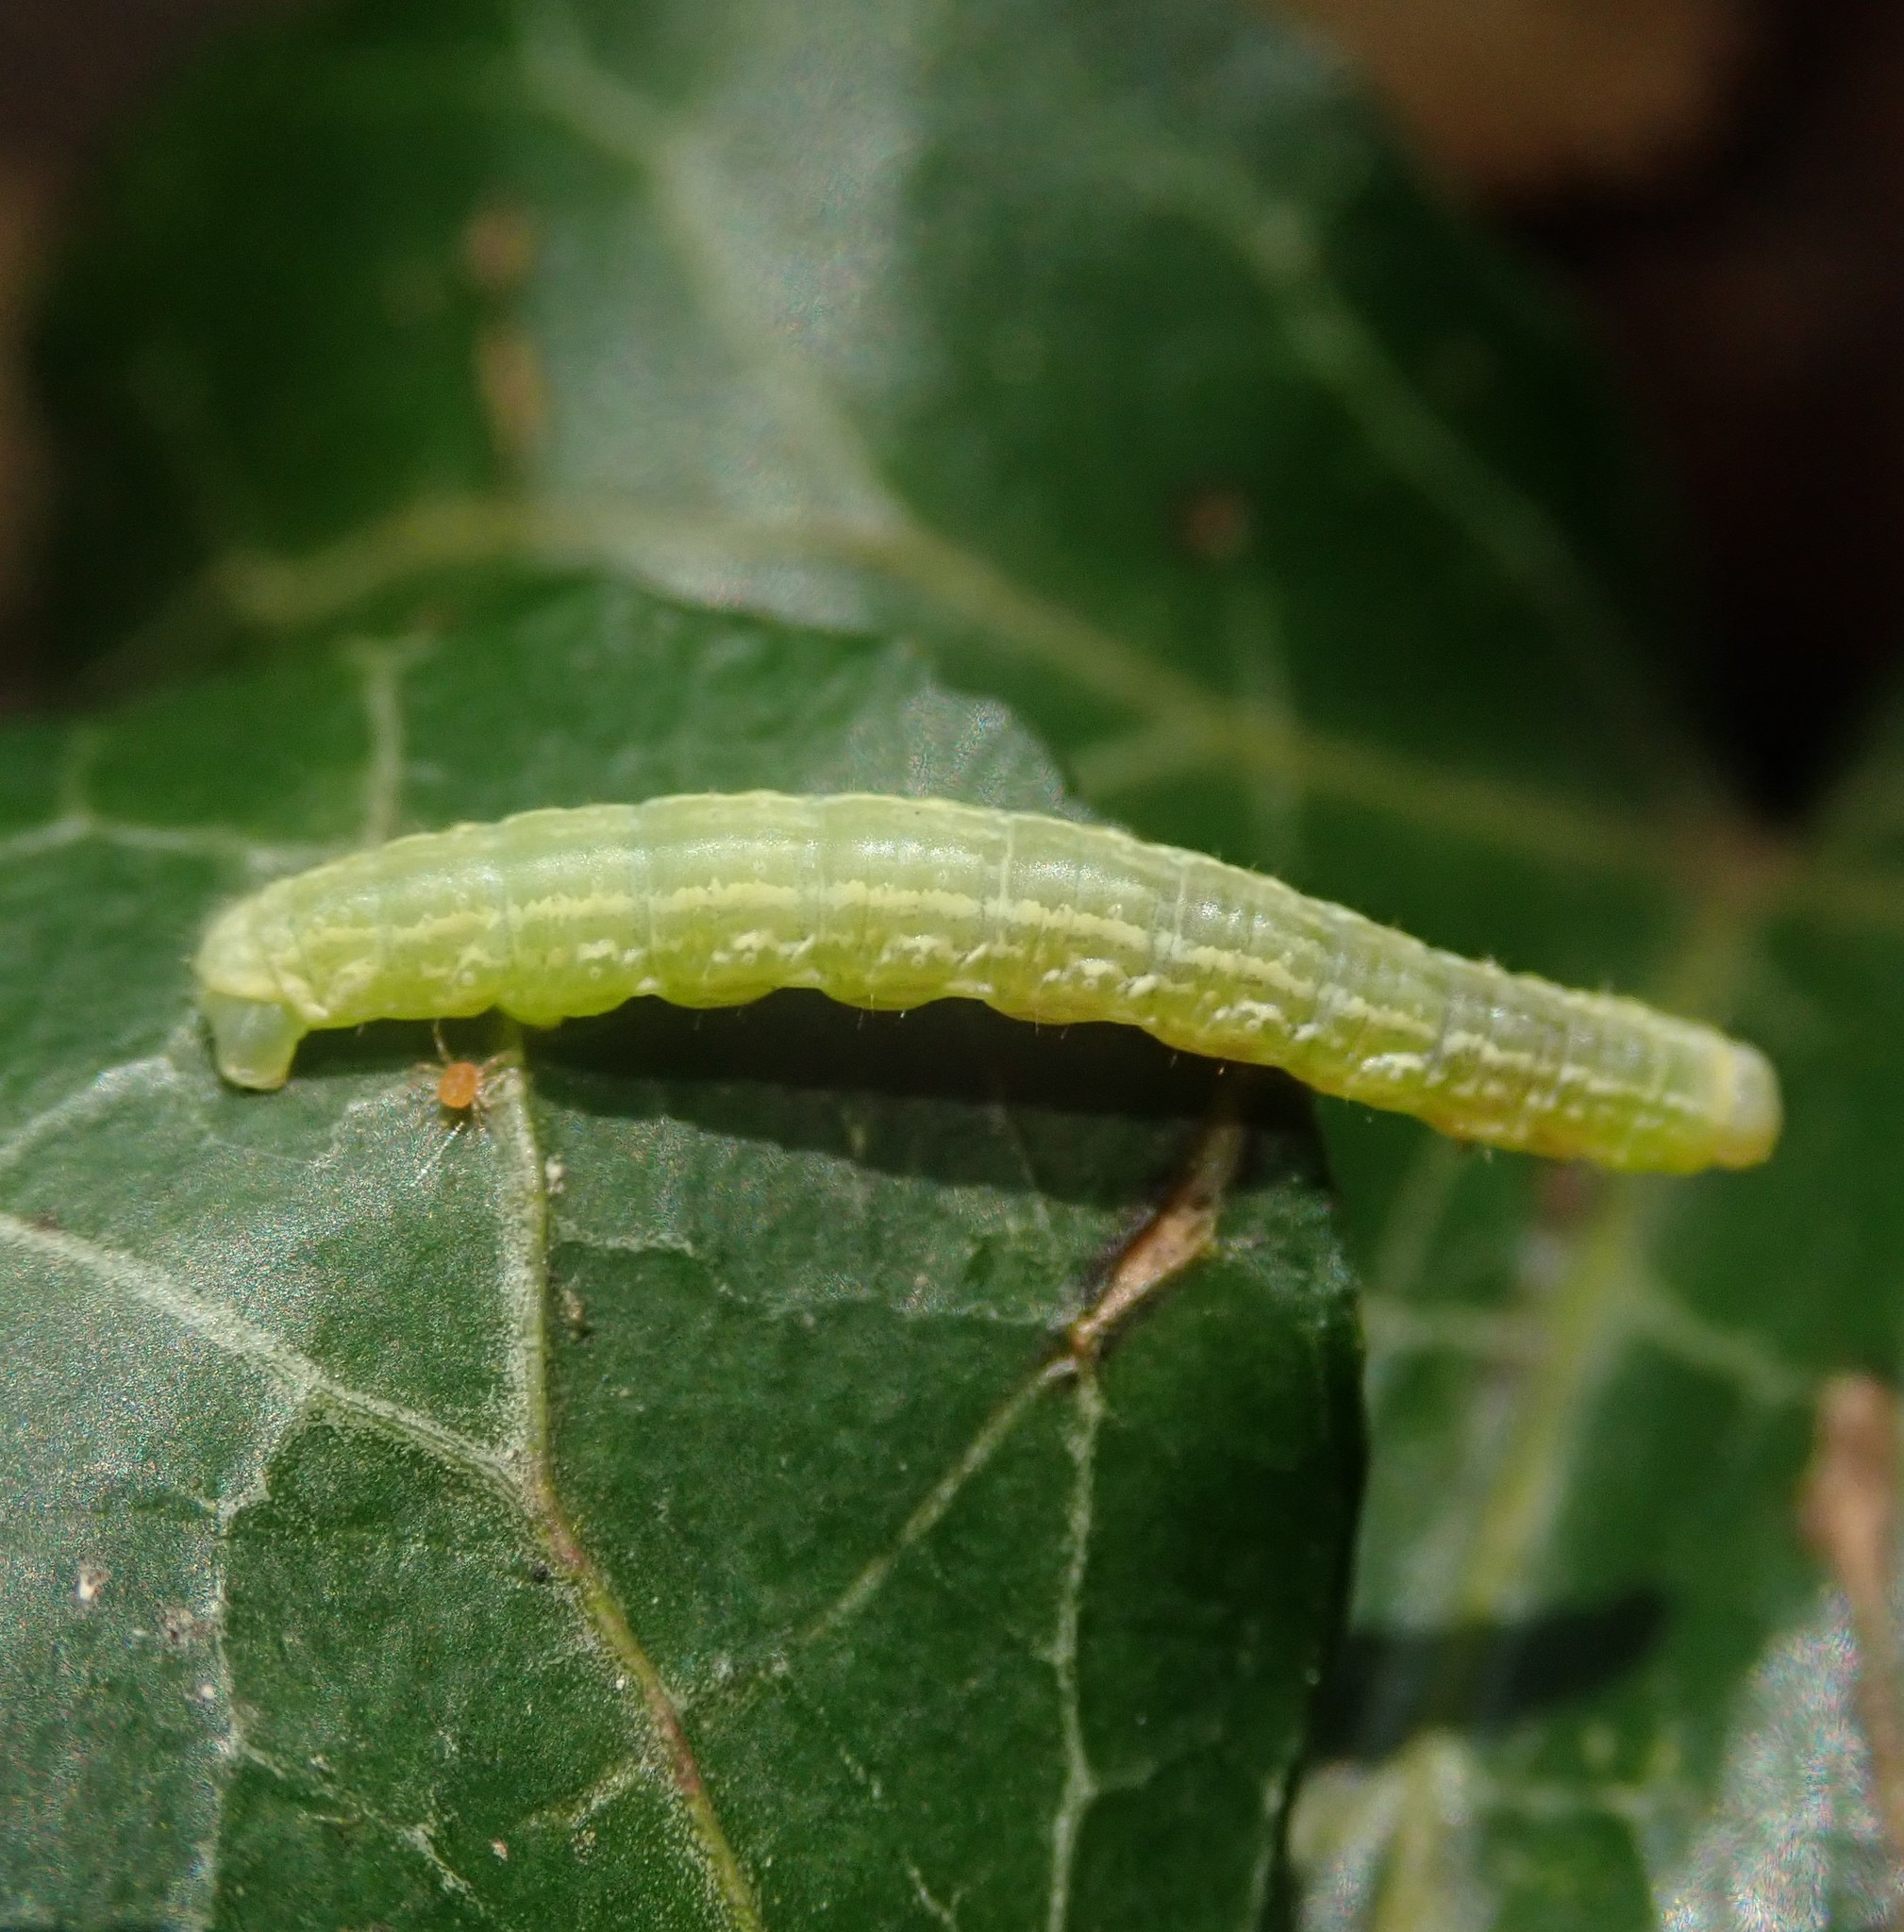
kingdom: Animalia
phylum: Arthropoda
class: Insecta
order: Lepidoptera
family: Geometridae
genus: Operophtera
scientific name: Operophtera brumata
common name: Winter moth
